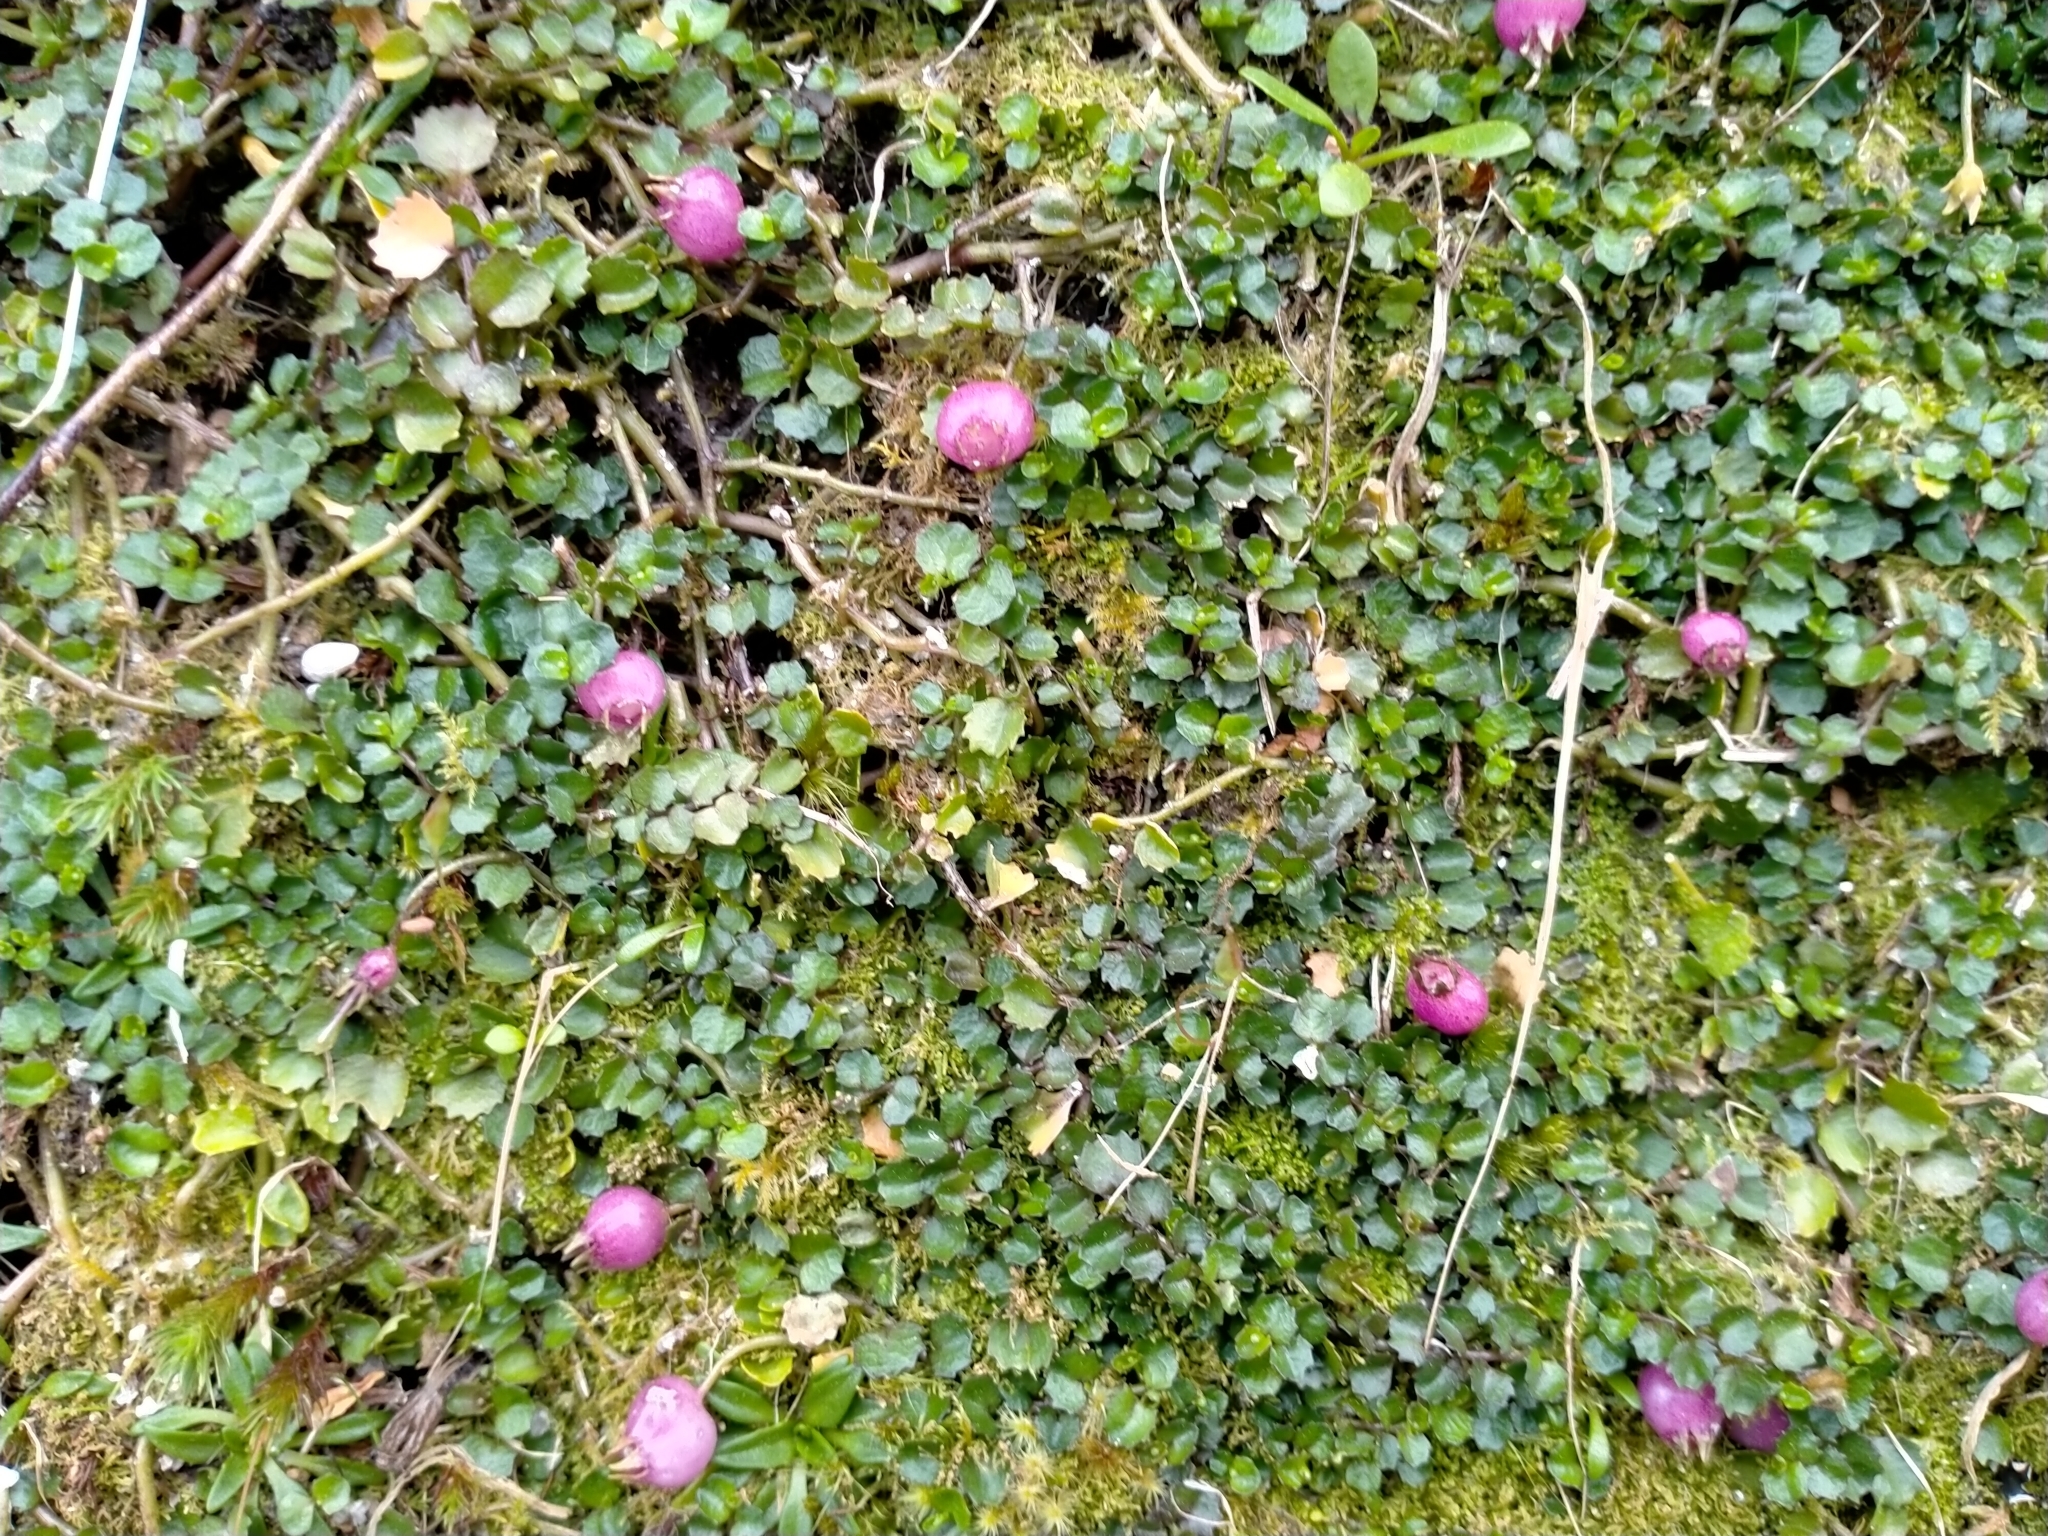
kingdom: Plantae
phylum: Tracheophyta
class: Magnoliopsida
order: Asterales
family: Campanulaceae
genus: Lobelia
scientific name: Lobelia angulata
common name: Lawn lobelia
